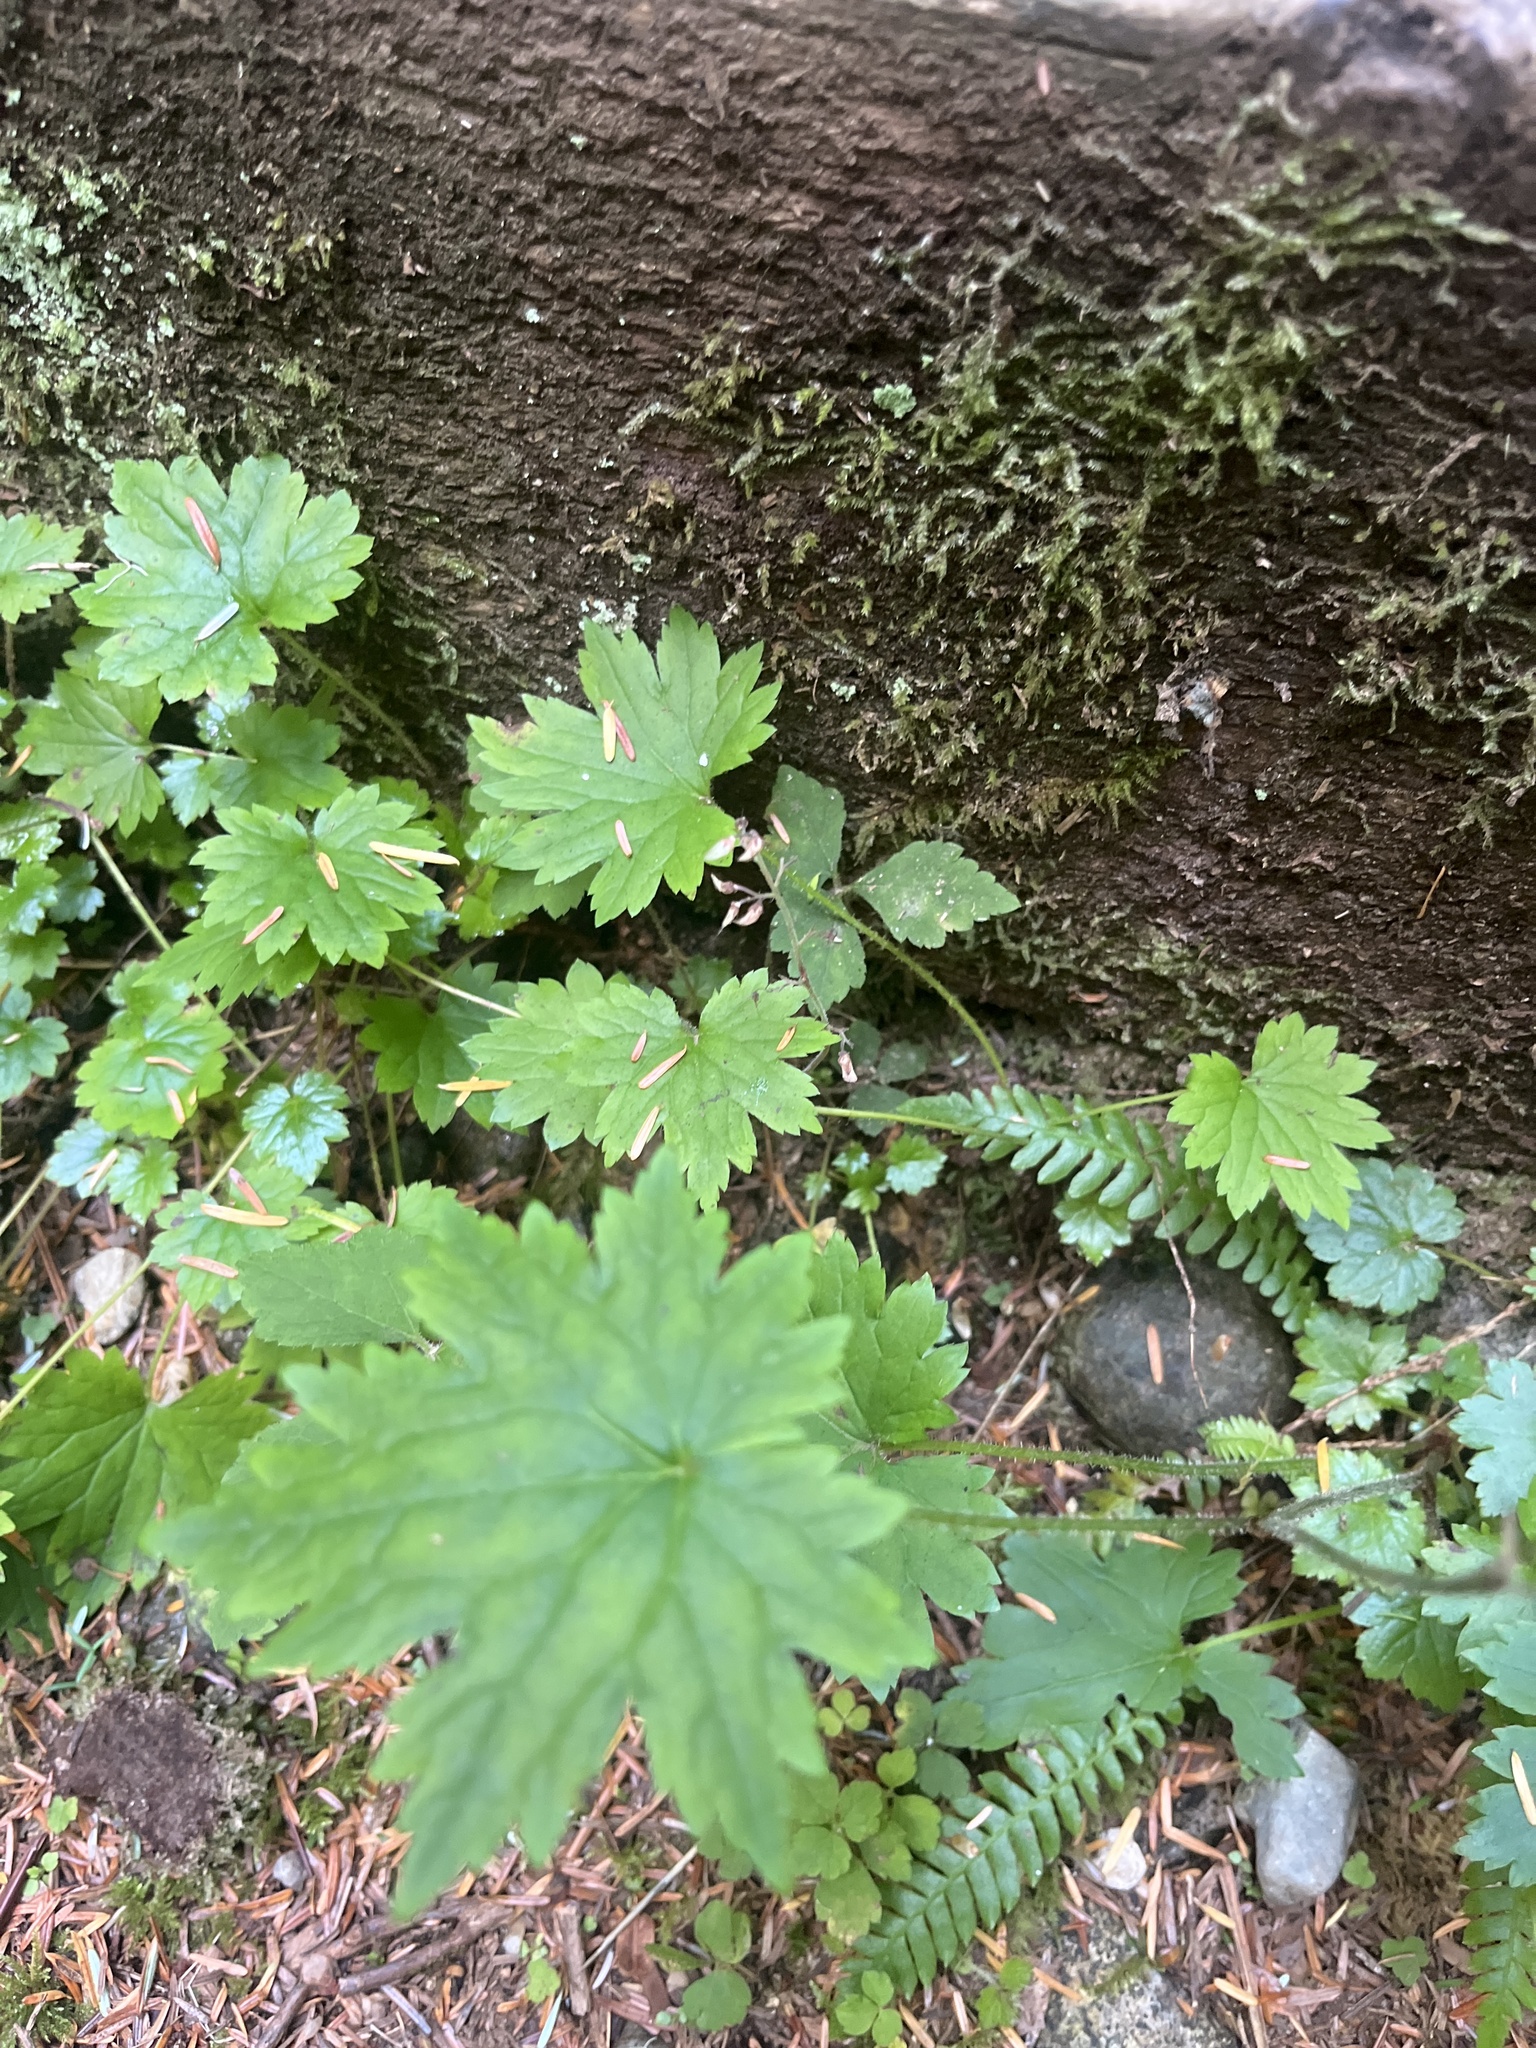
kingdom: Plantae
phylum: Tracheophyta
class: Magnoliopsida
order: Saxifragales
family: Saxifragaceae
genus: Boykinia
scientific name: Boykinia occidentalis
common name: Coast boykinia
